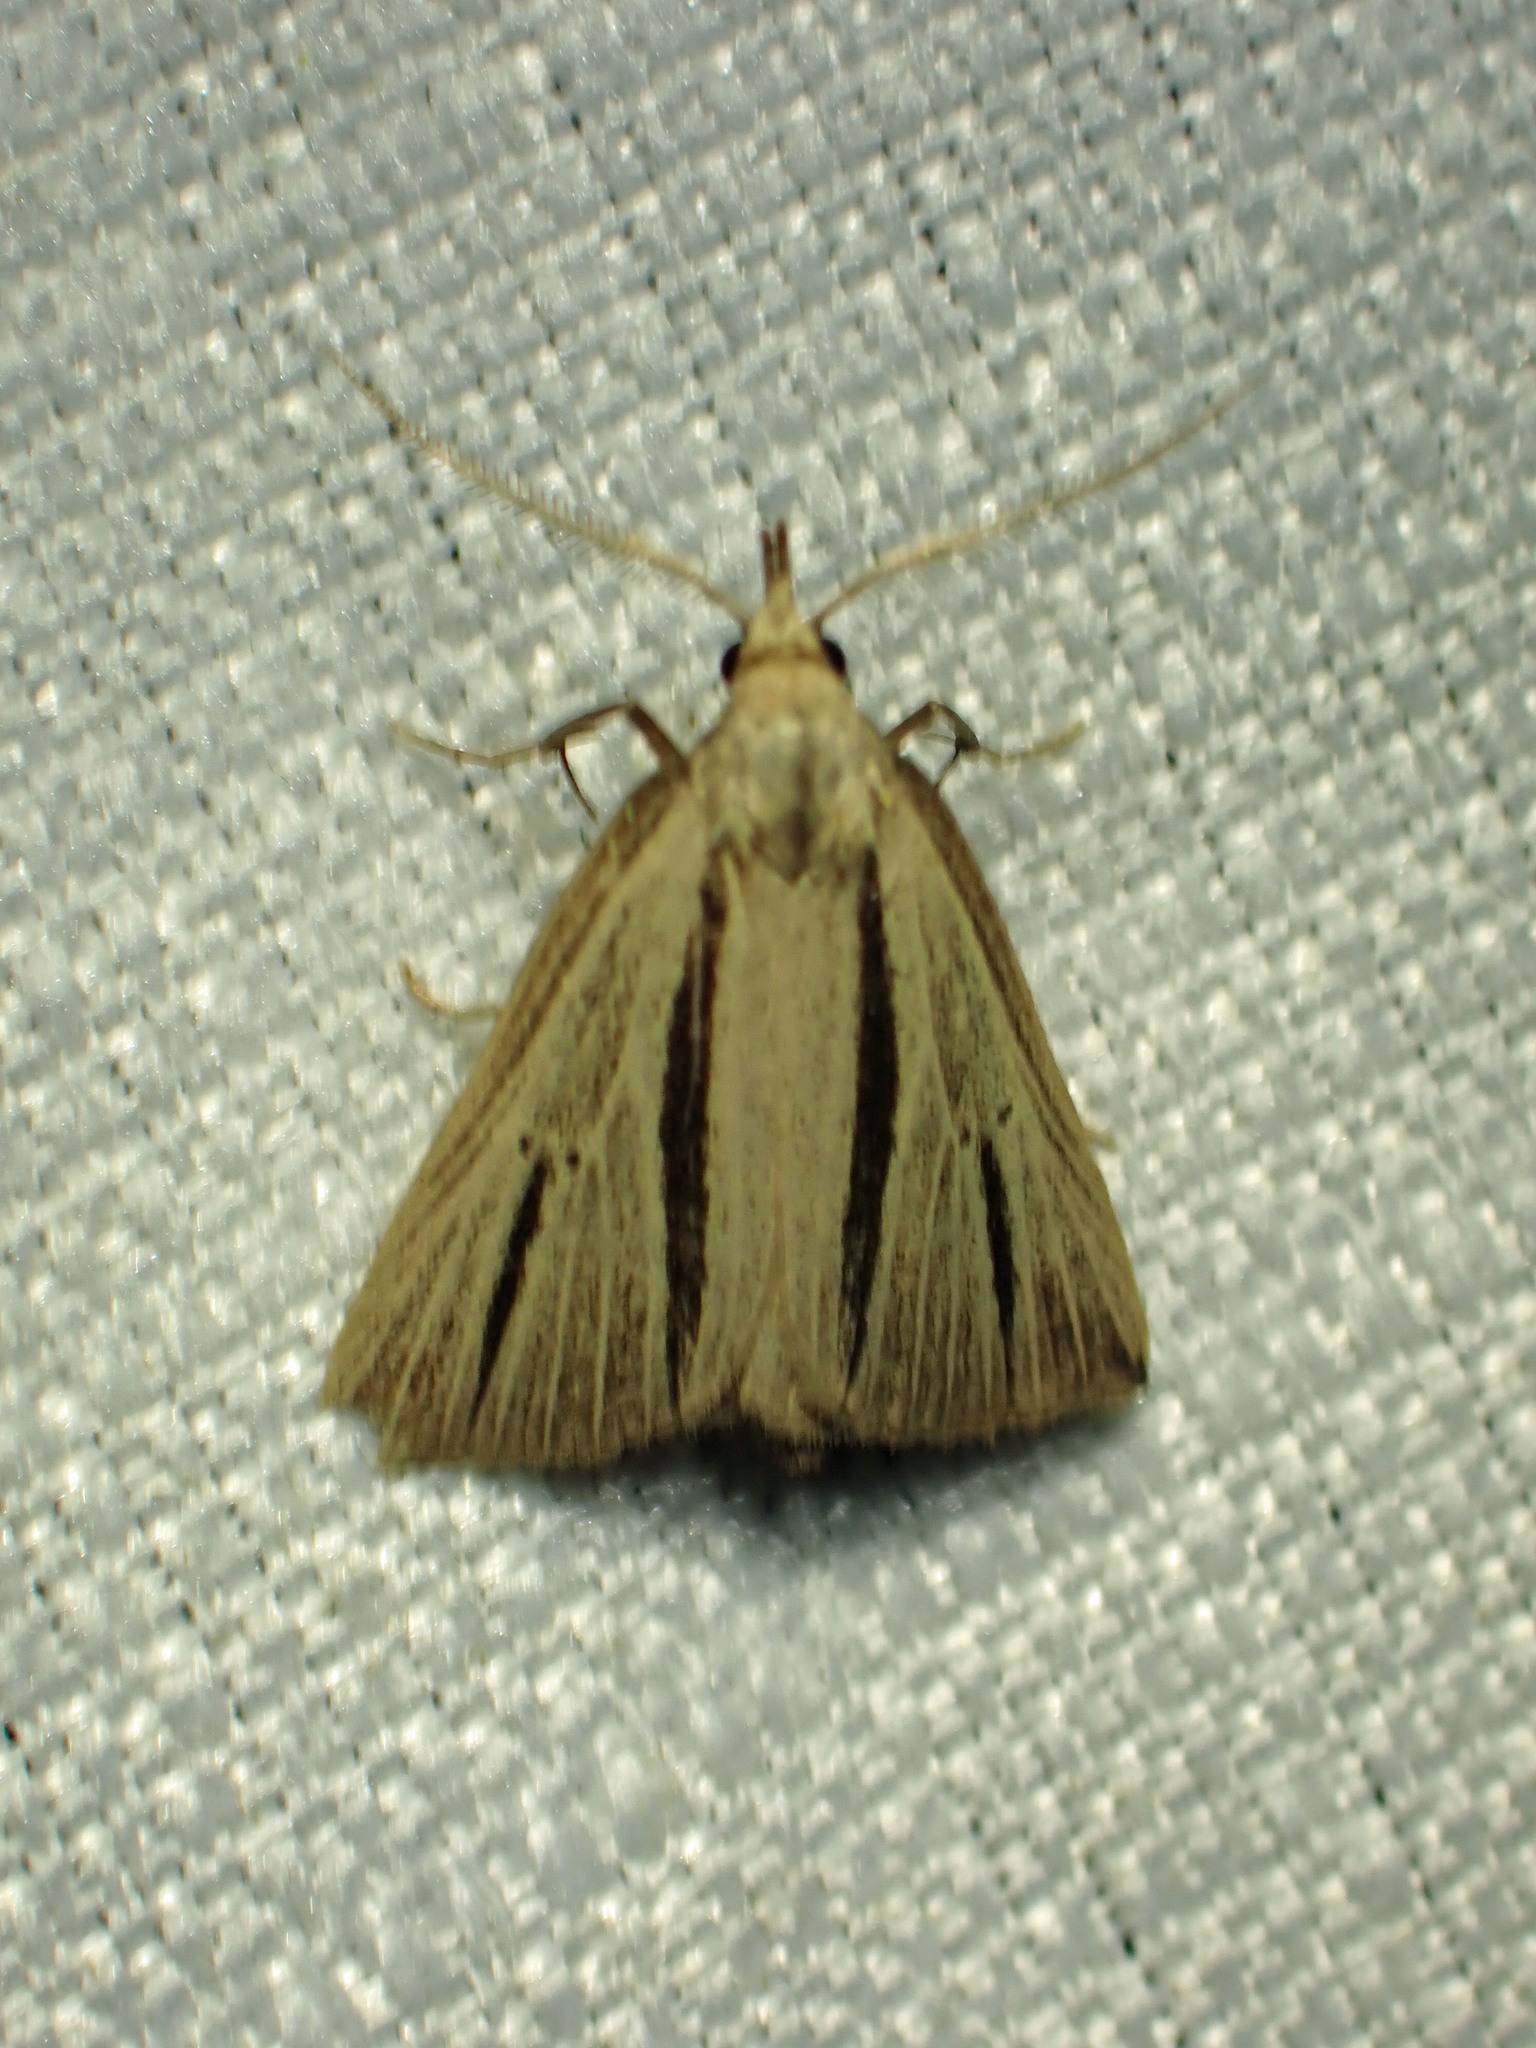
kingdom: Animalia
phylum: Arthropoda
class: Insecta
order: Lepidoptera
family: Erebidae
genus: Macrochilo
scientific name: Macrochilo bivittata
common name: Two-striped cord grass moth
